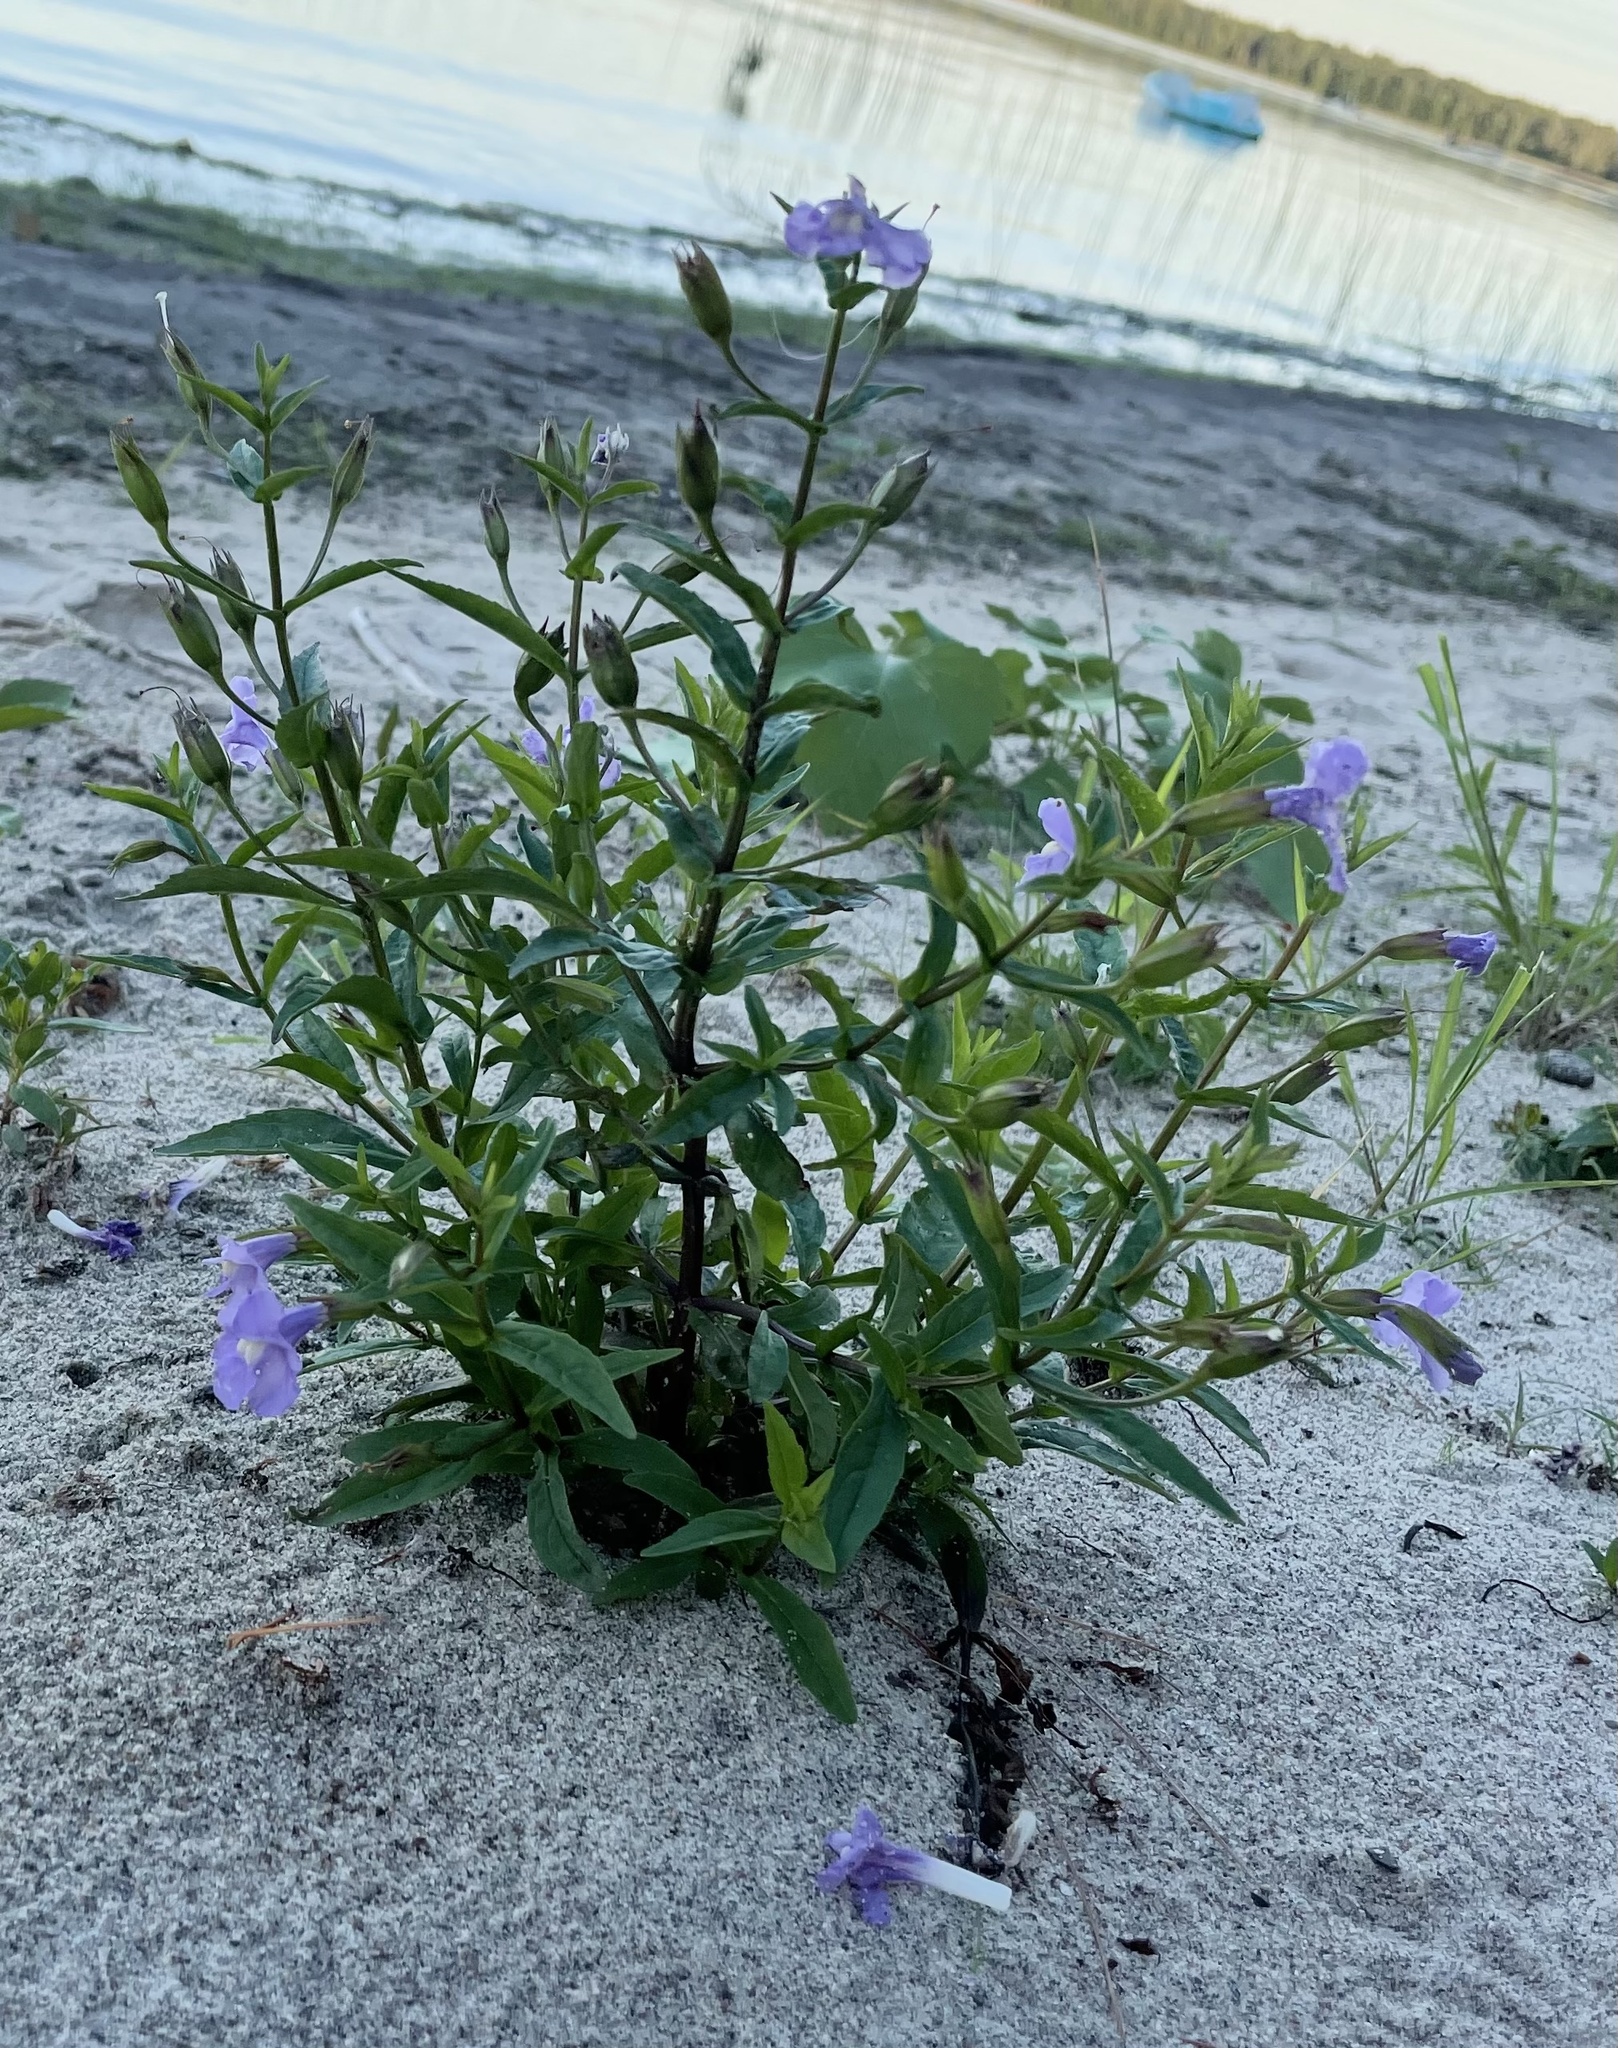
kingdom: Plantae
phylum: Tracheophyta
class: Magnoliopsida
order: Lamiales
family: Phrymaceae
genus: Mimulus
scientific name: Mimulus ringens
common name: Allegheny monkeyflower
